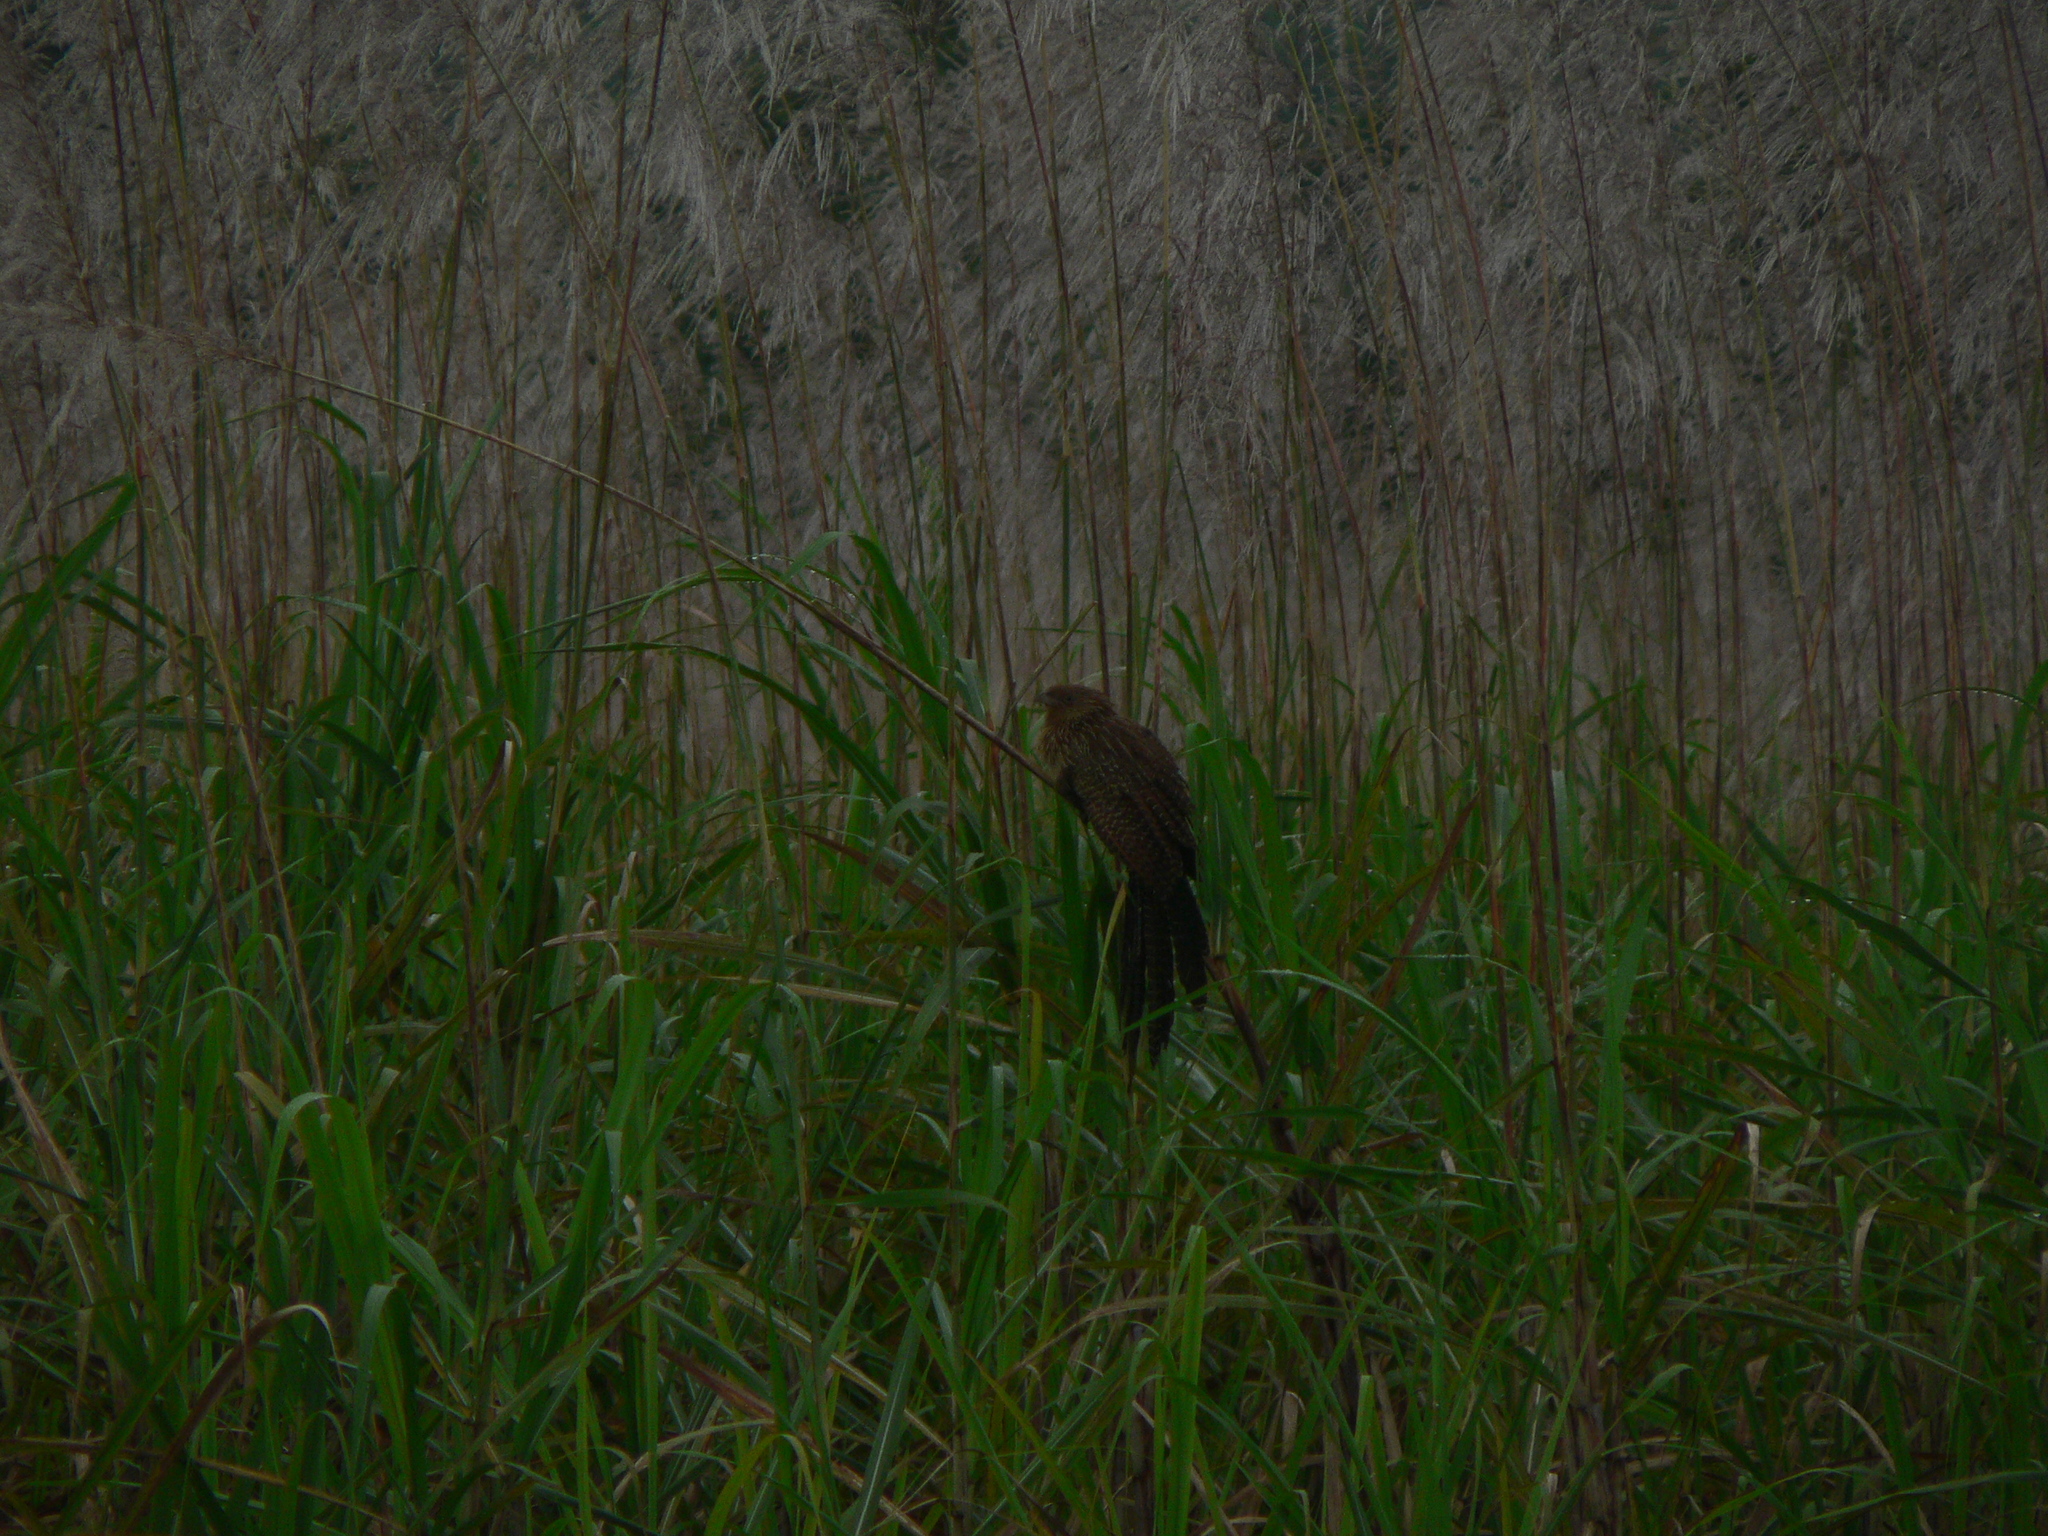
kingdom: Animalia
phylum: Chordata
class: Aves
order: Cuculiformes
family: Cuculidae
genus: Centropus
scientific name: Centropus phasianinus
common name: Pheasant coucal
